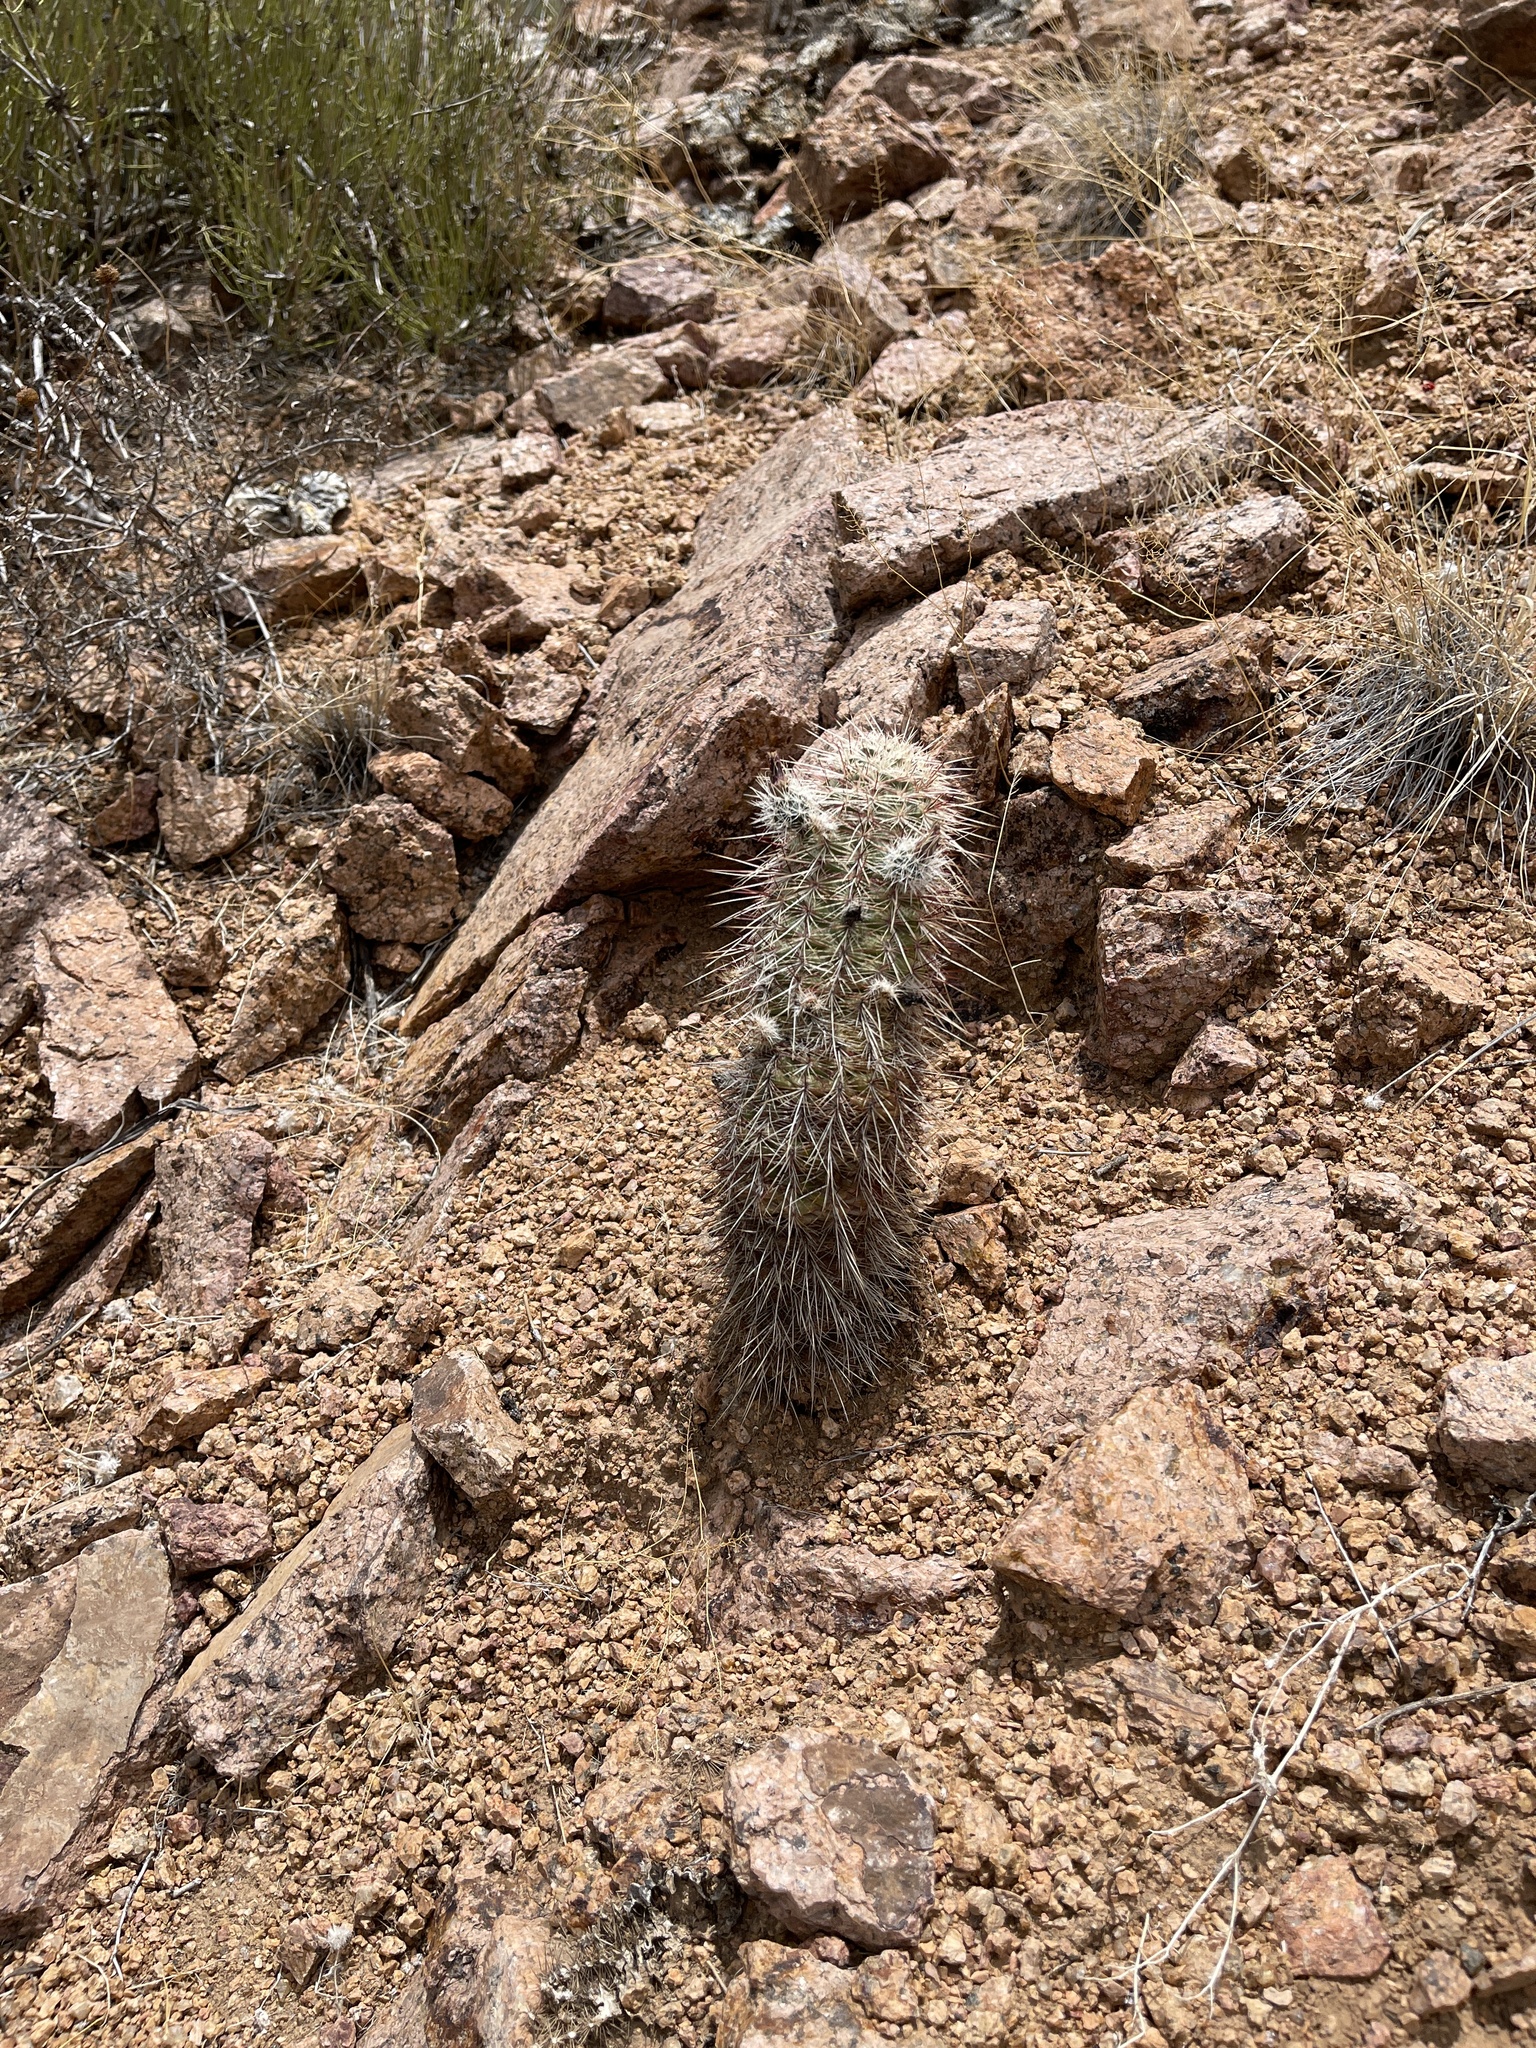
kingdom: Plantae
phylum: Tracheophyta
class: Magnoliopsida
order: Caryophyllales
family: Cactaceae
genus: Echinocereus
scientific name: Echinocereus viridiflorus
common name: Nylon hedgehog cactus
